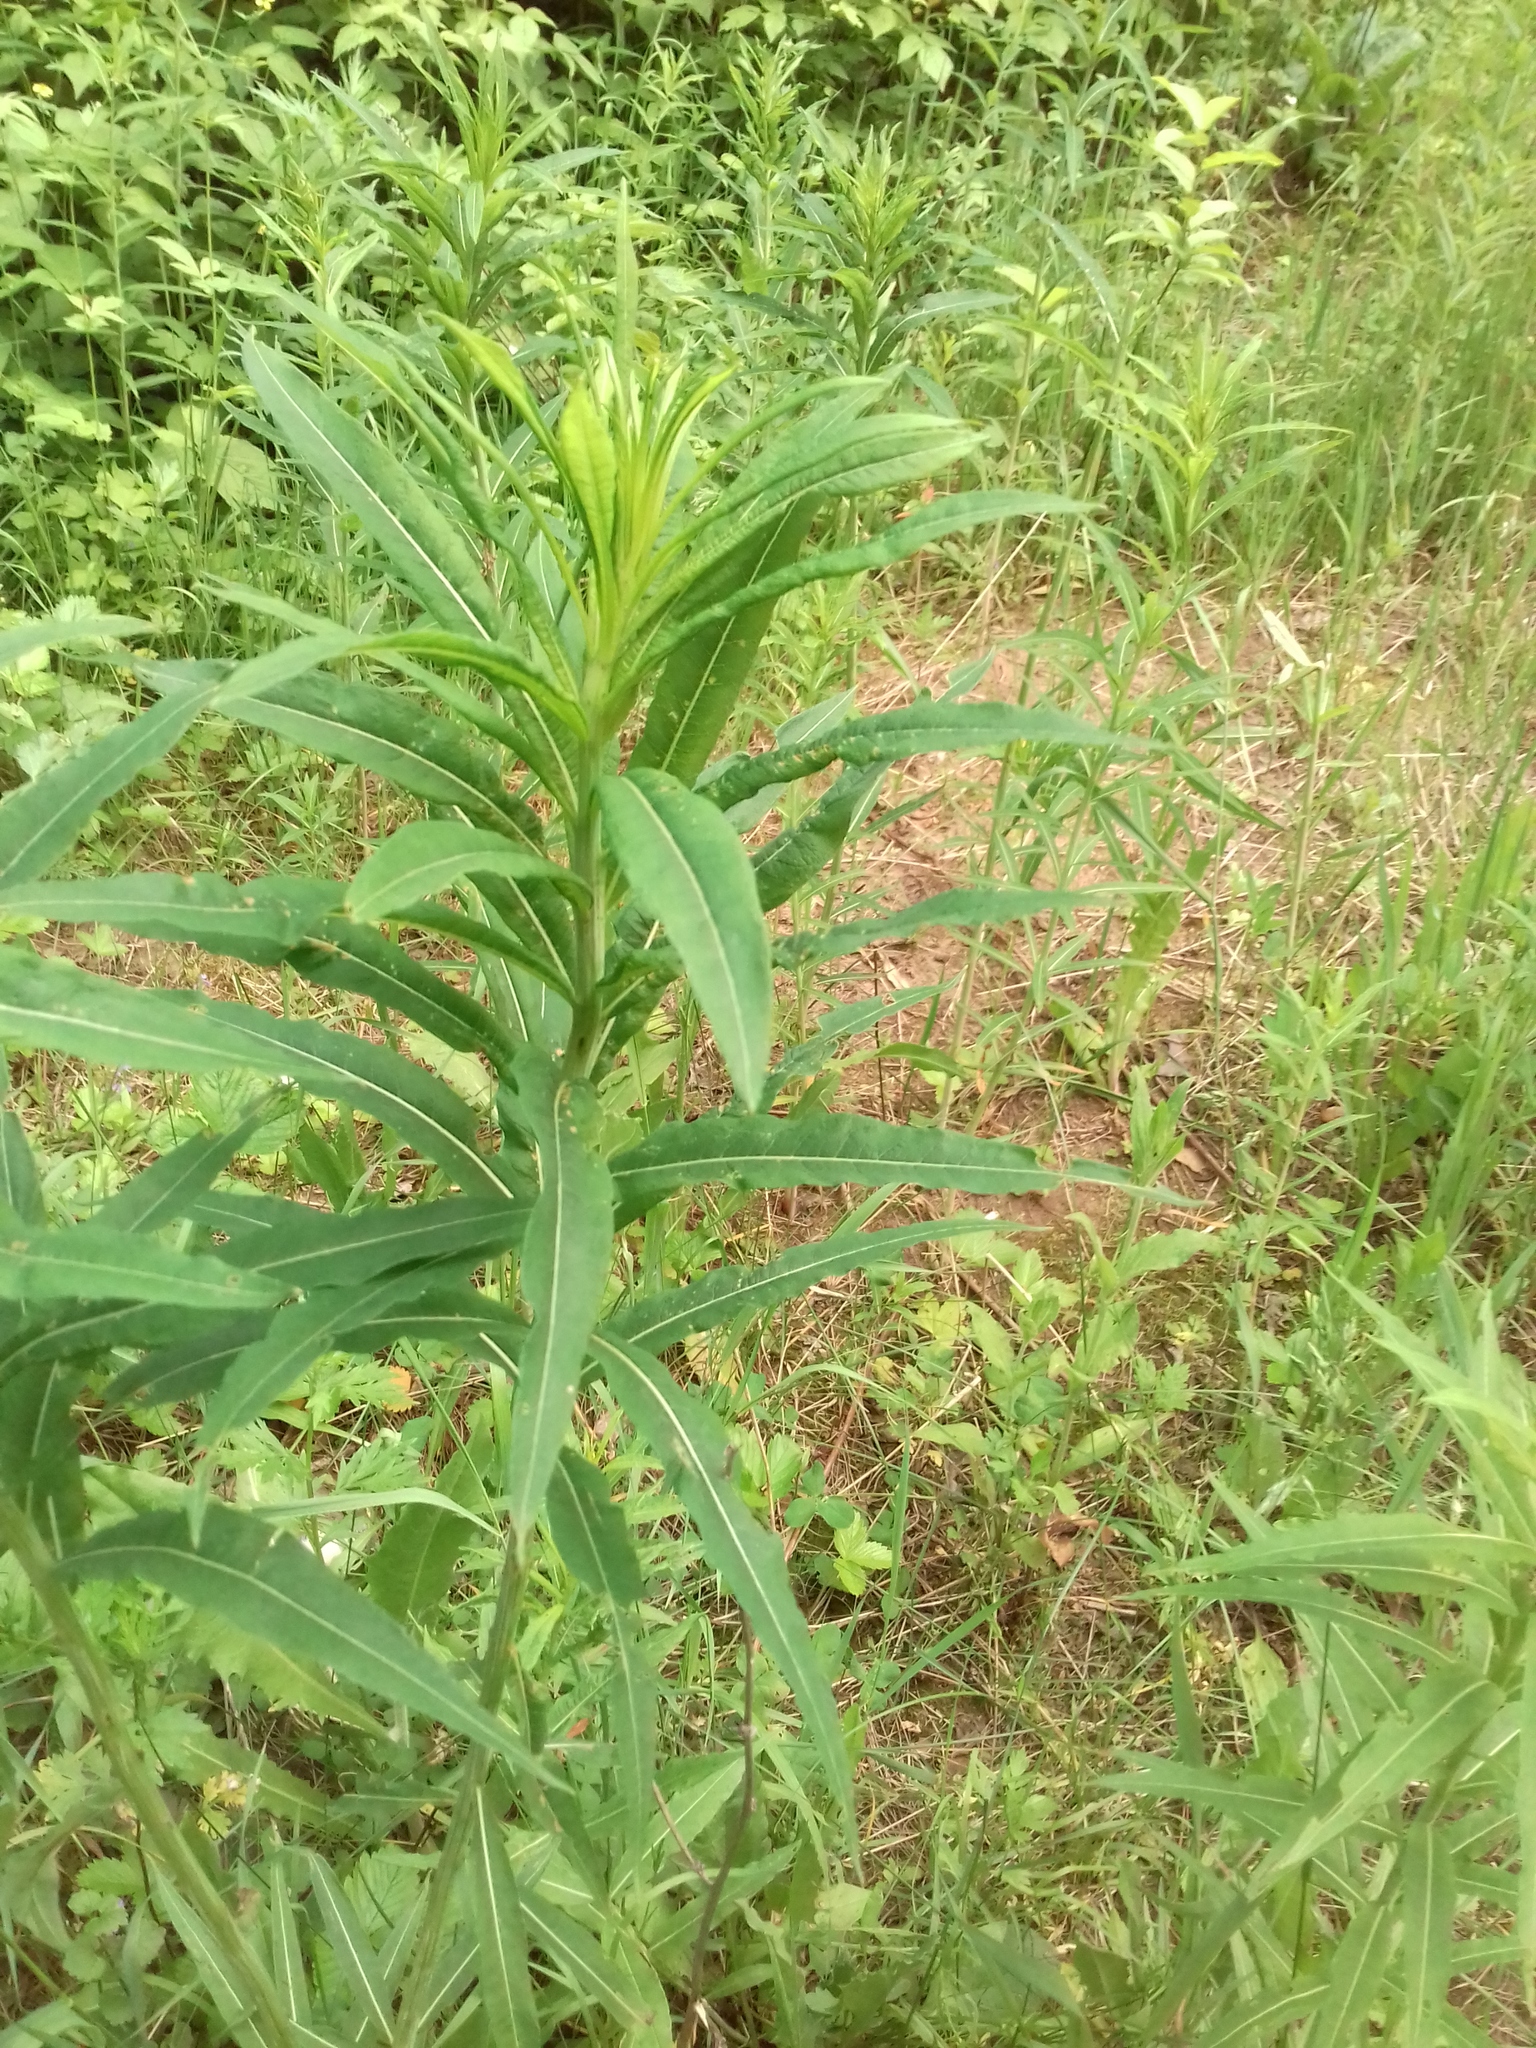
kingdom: Plantae
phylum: Tracheophyta
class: Magnoliopsida
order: Myrtales
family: Onagraceae
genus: Chamaenerion
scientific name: Chamaenerion angustifolium
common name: Fireweed
